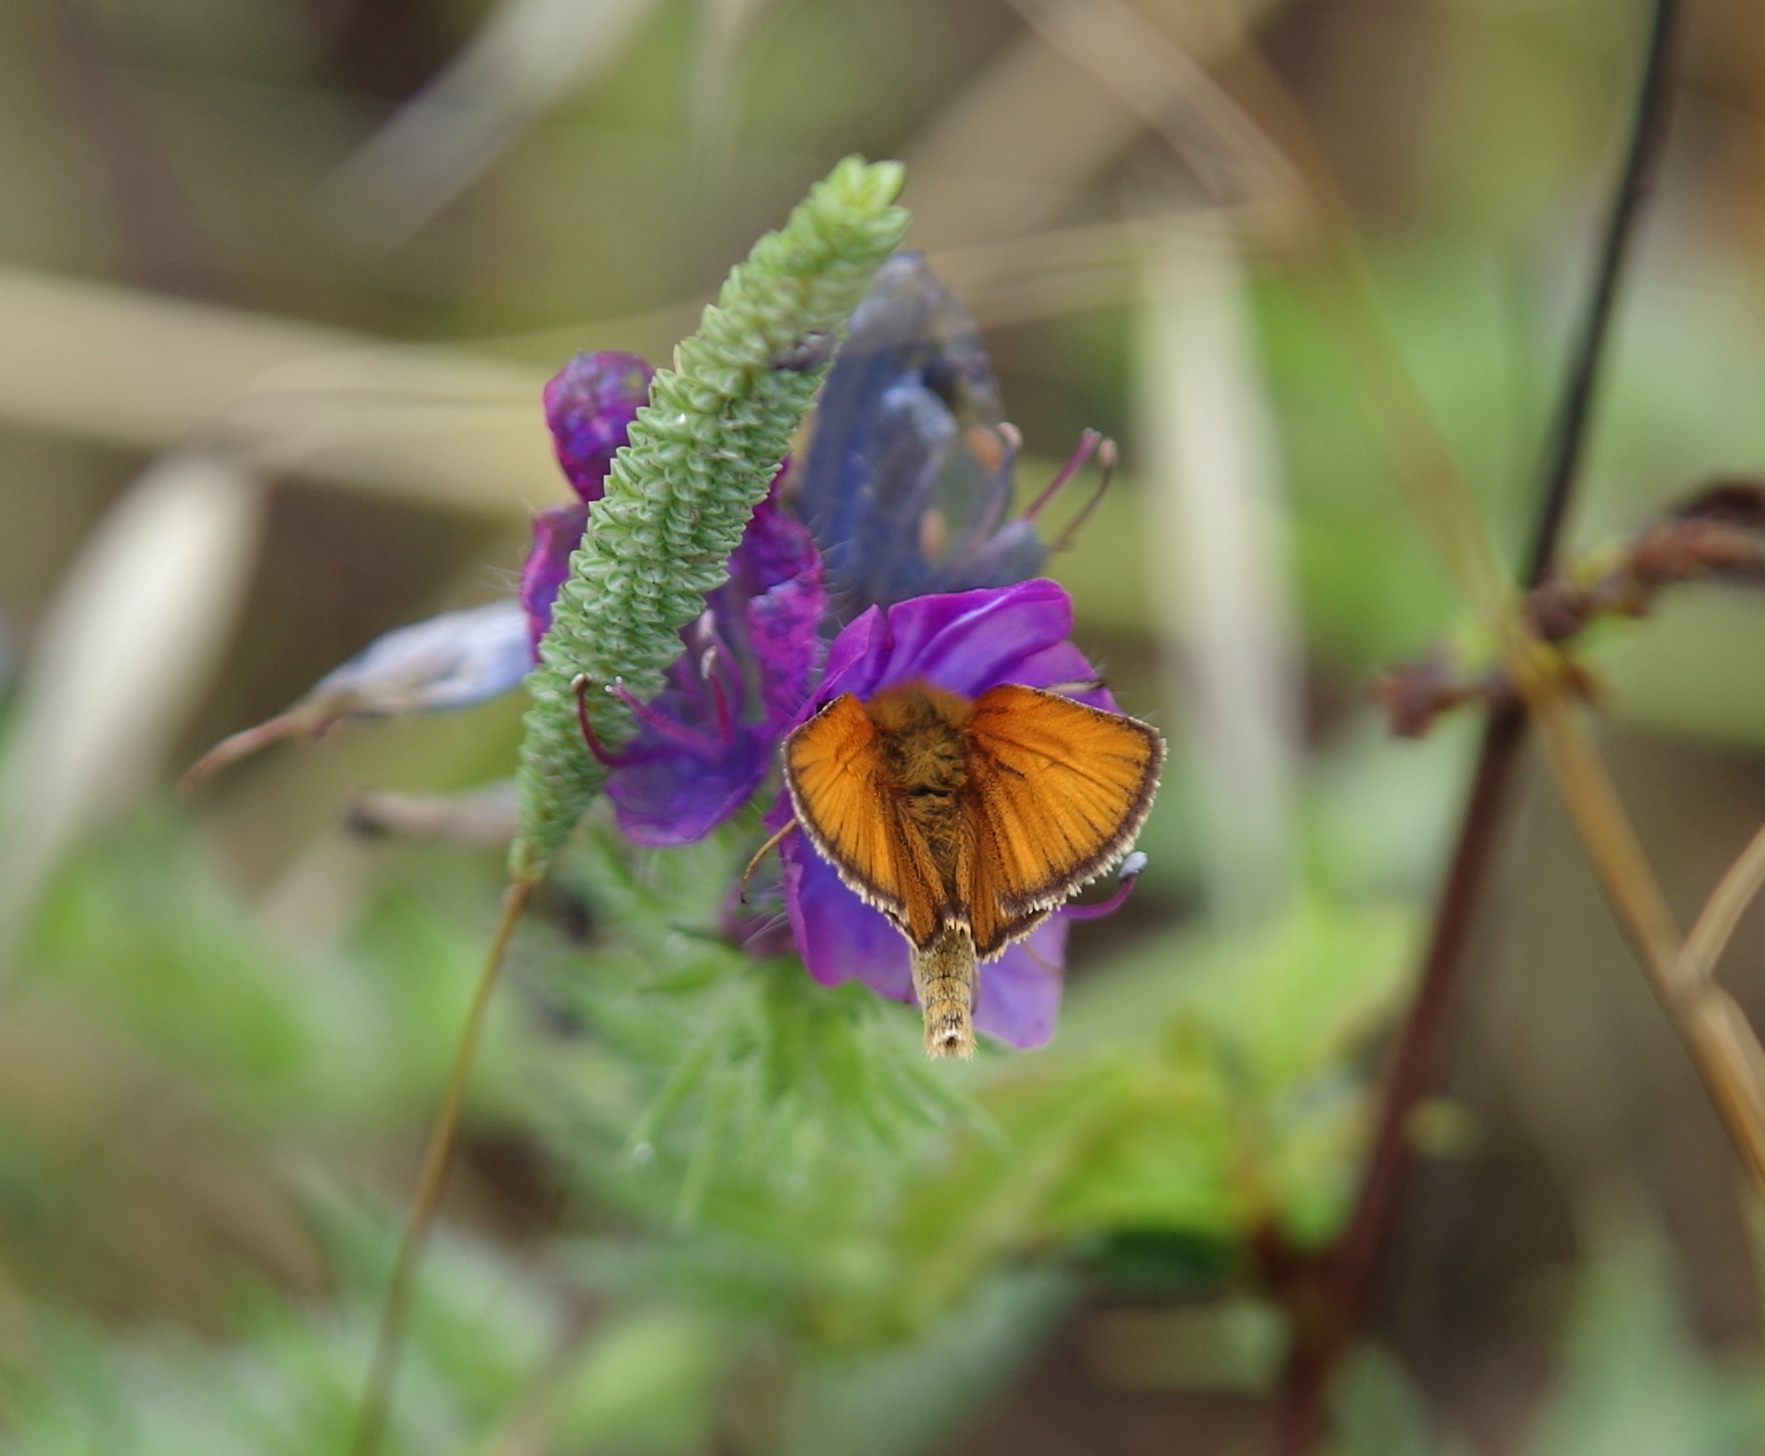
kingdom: Animalia
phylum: Arthropoda
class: Insecta
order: Lepidoptera
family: Hesperiidae
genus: Thymelicus
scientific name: Thymelicus lineola
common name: Essex skipper
